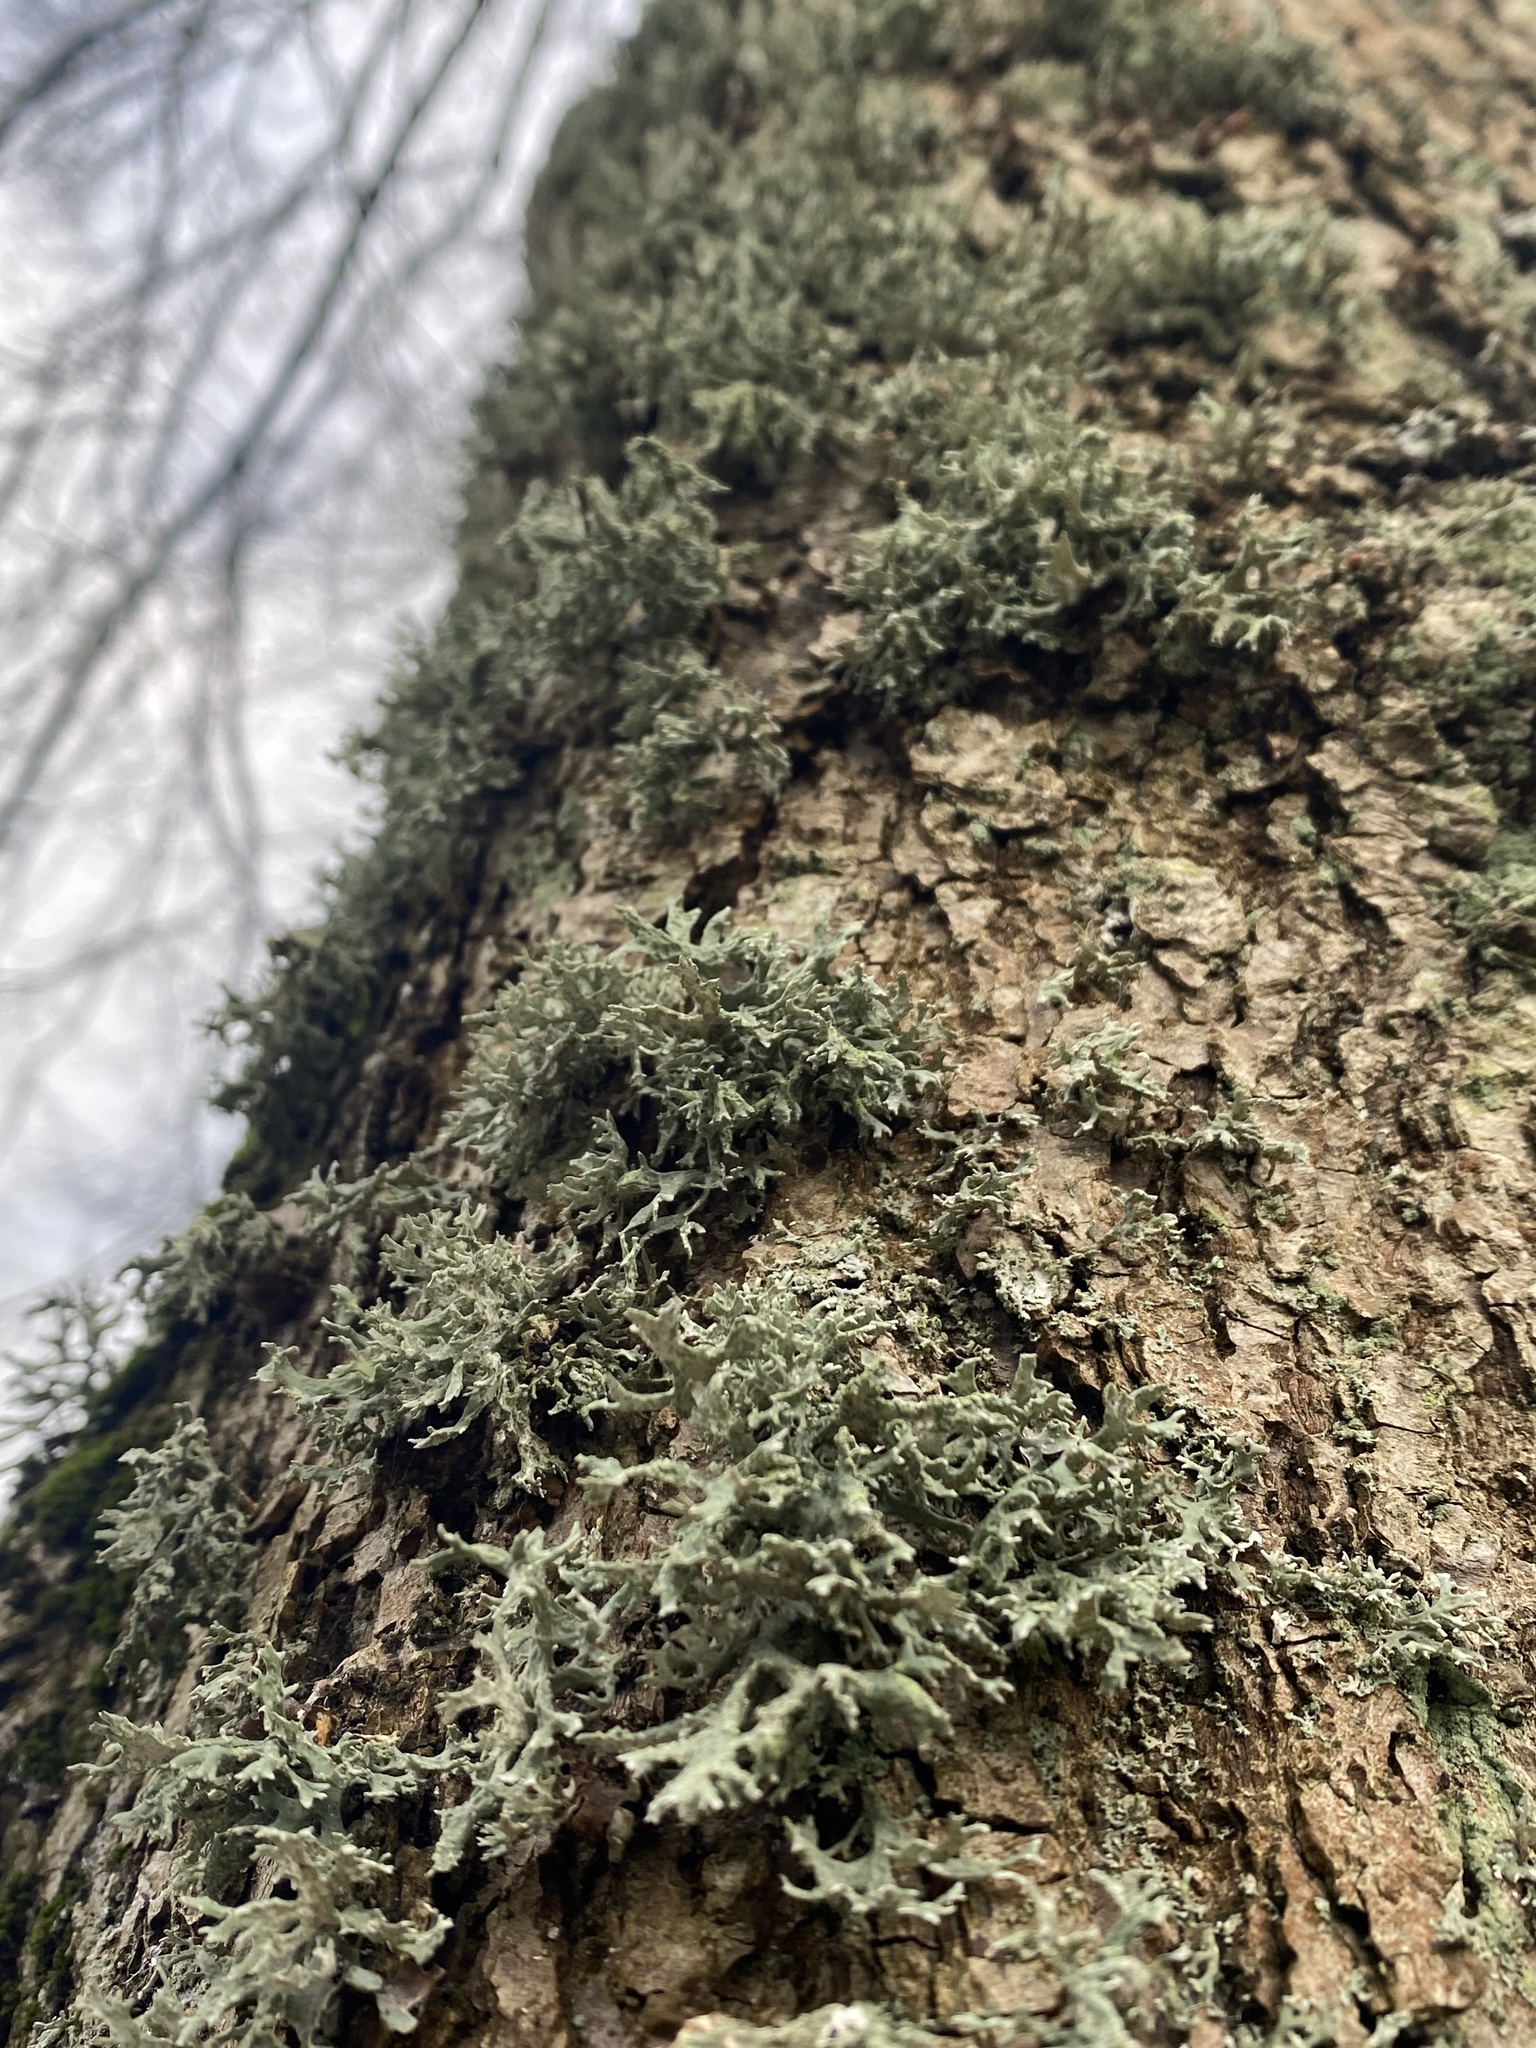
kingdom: Fungi
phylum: Ascomycota
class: Lecanoromycetes
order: Lecanorales
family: Parmeliaceae
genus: Evernia
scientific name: Evernia prunastri
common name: Oak moss
